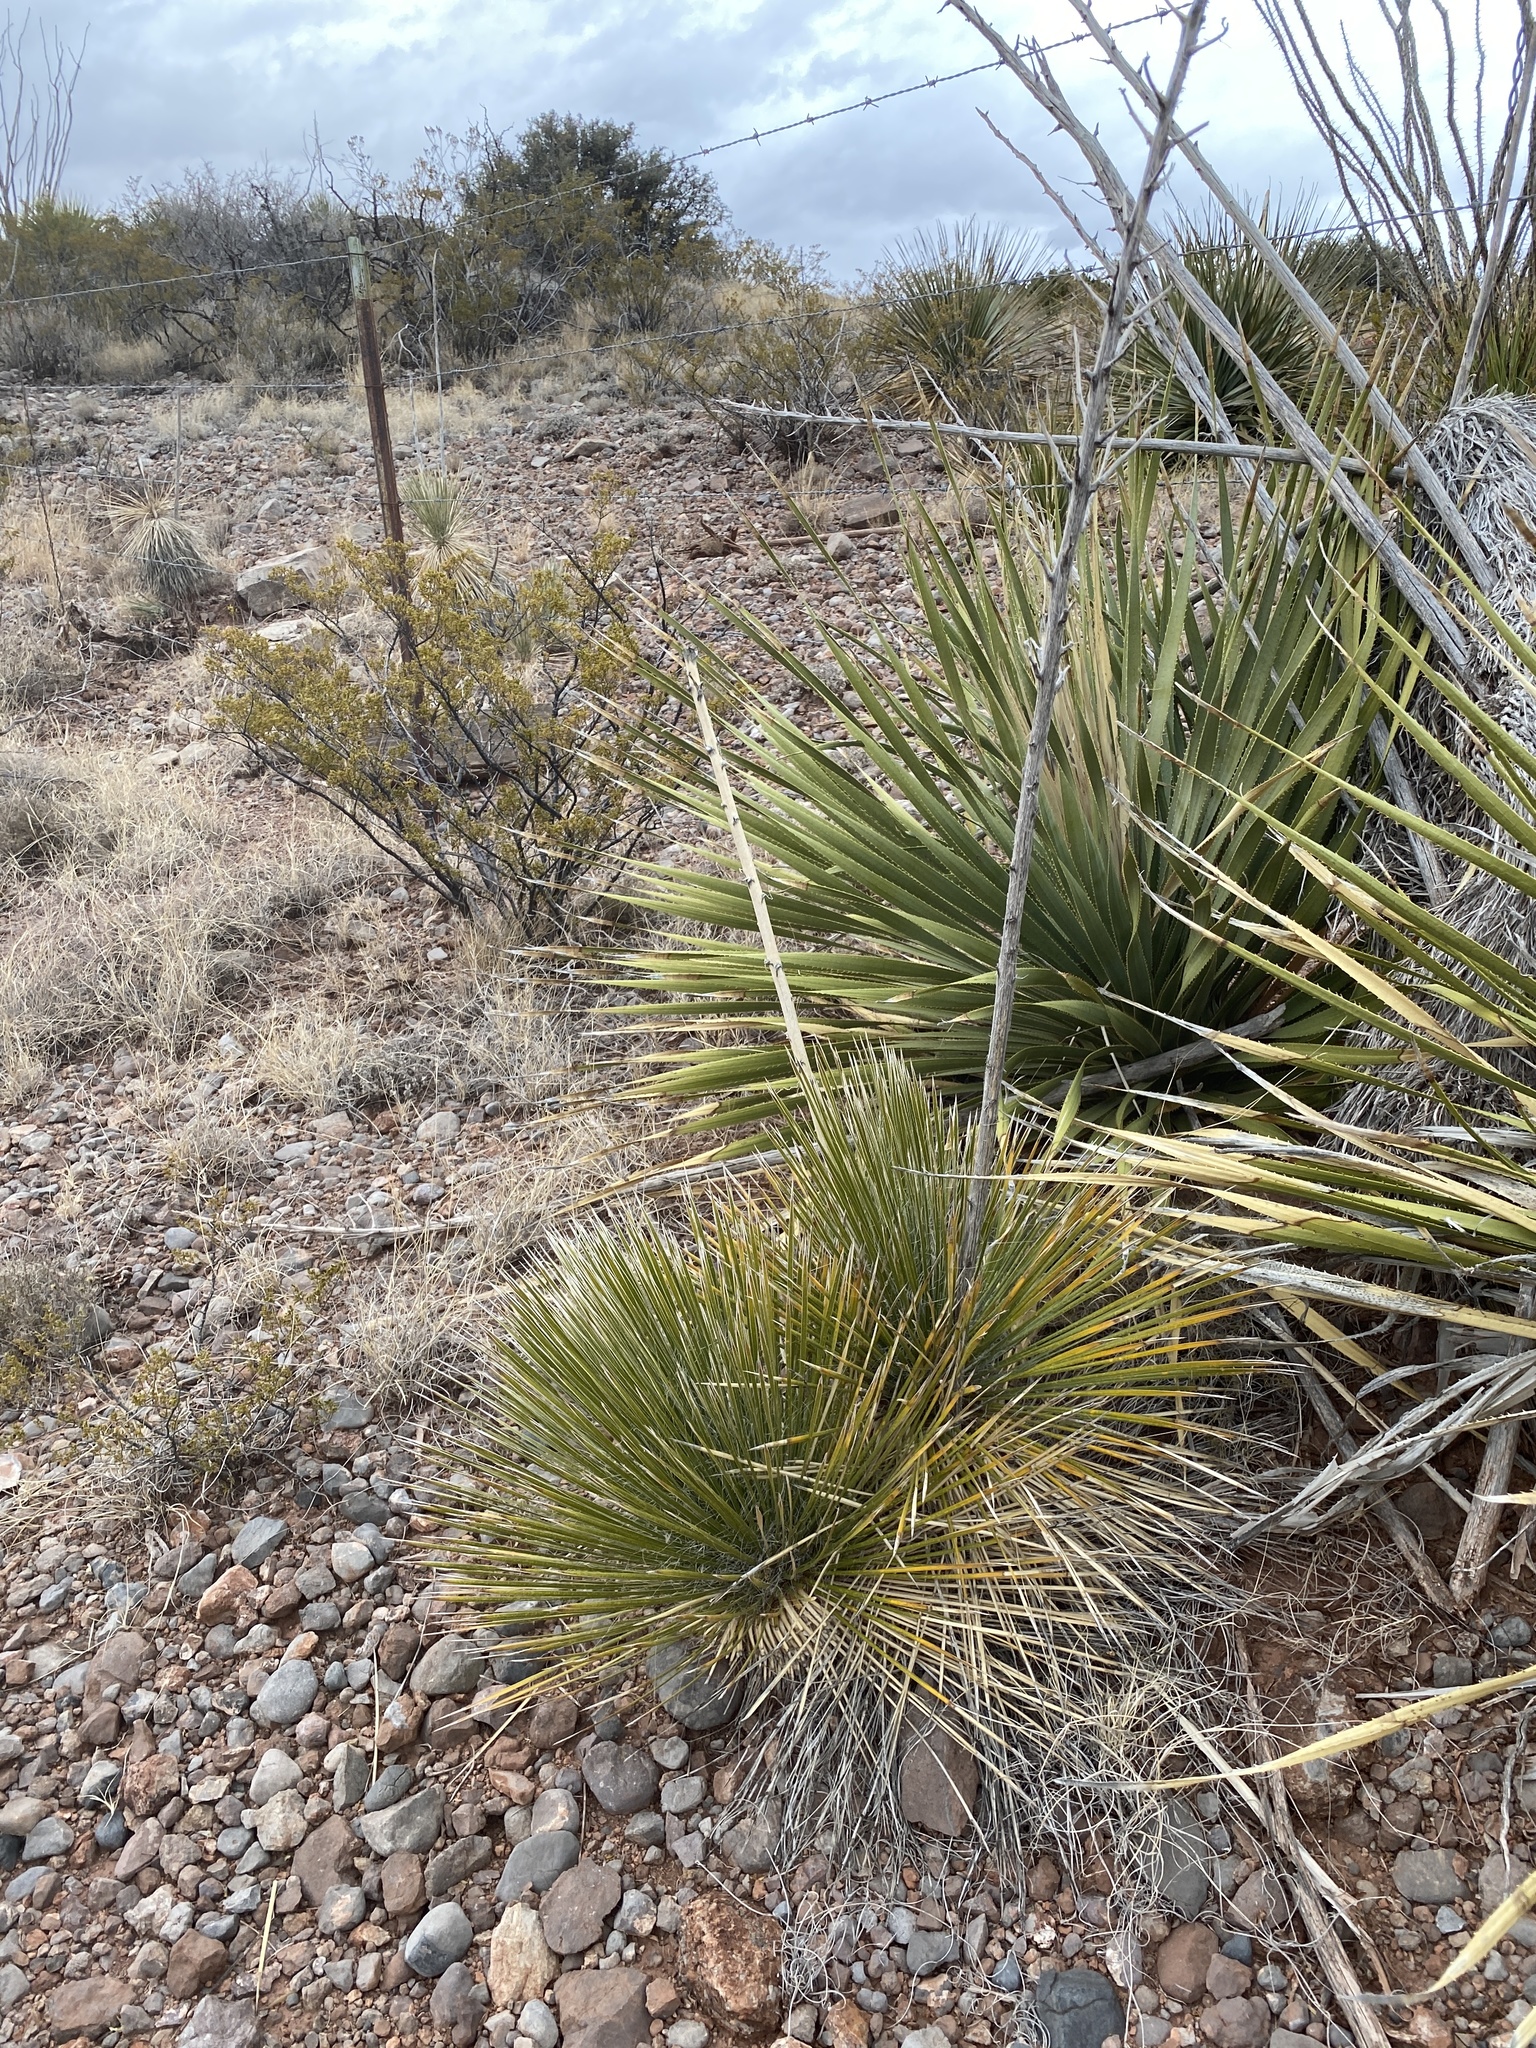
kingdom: Plantae
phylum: Tracheophyta
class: Liliopsida
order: Asparagales
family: Asparagaceae
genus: Yucca
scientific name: Yucca elata
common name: Palmella
